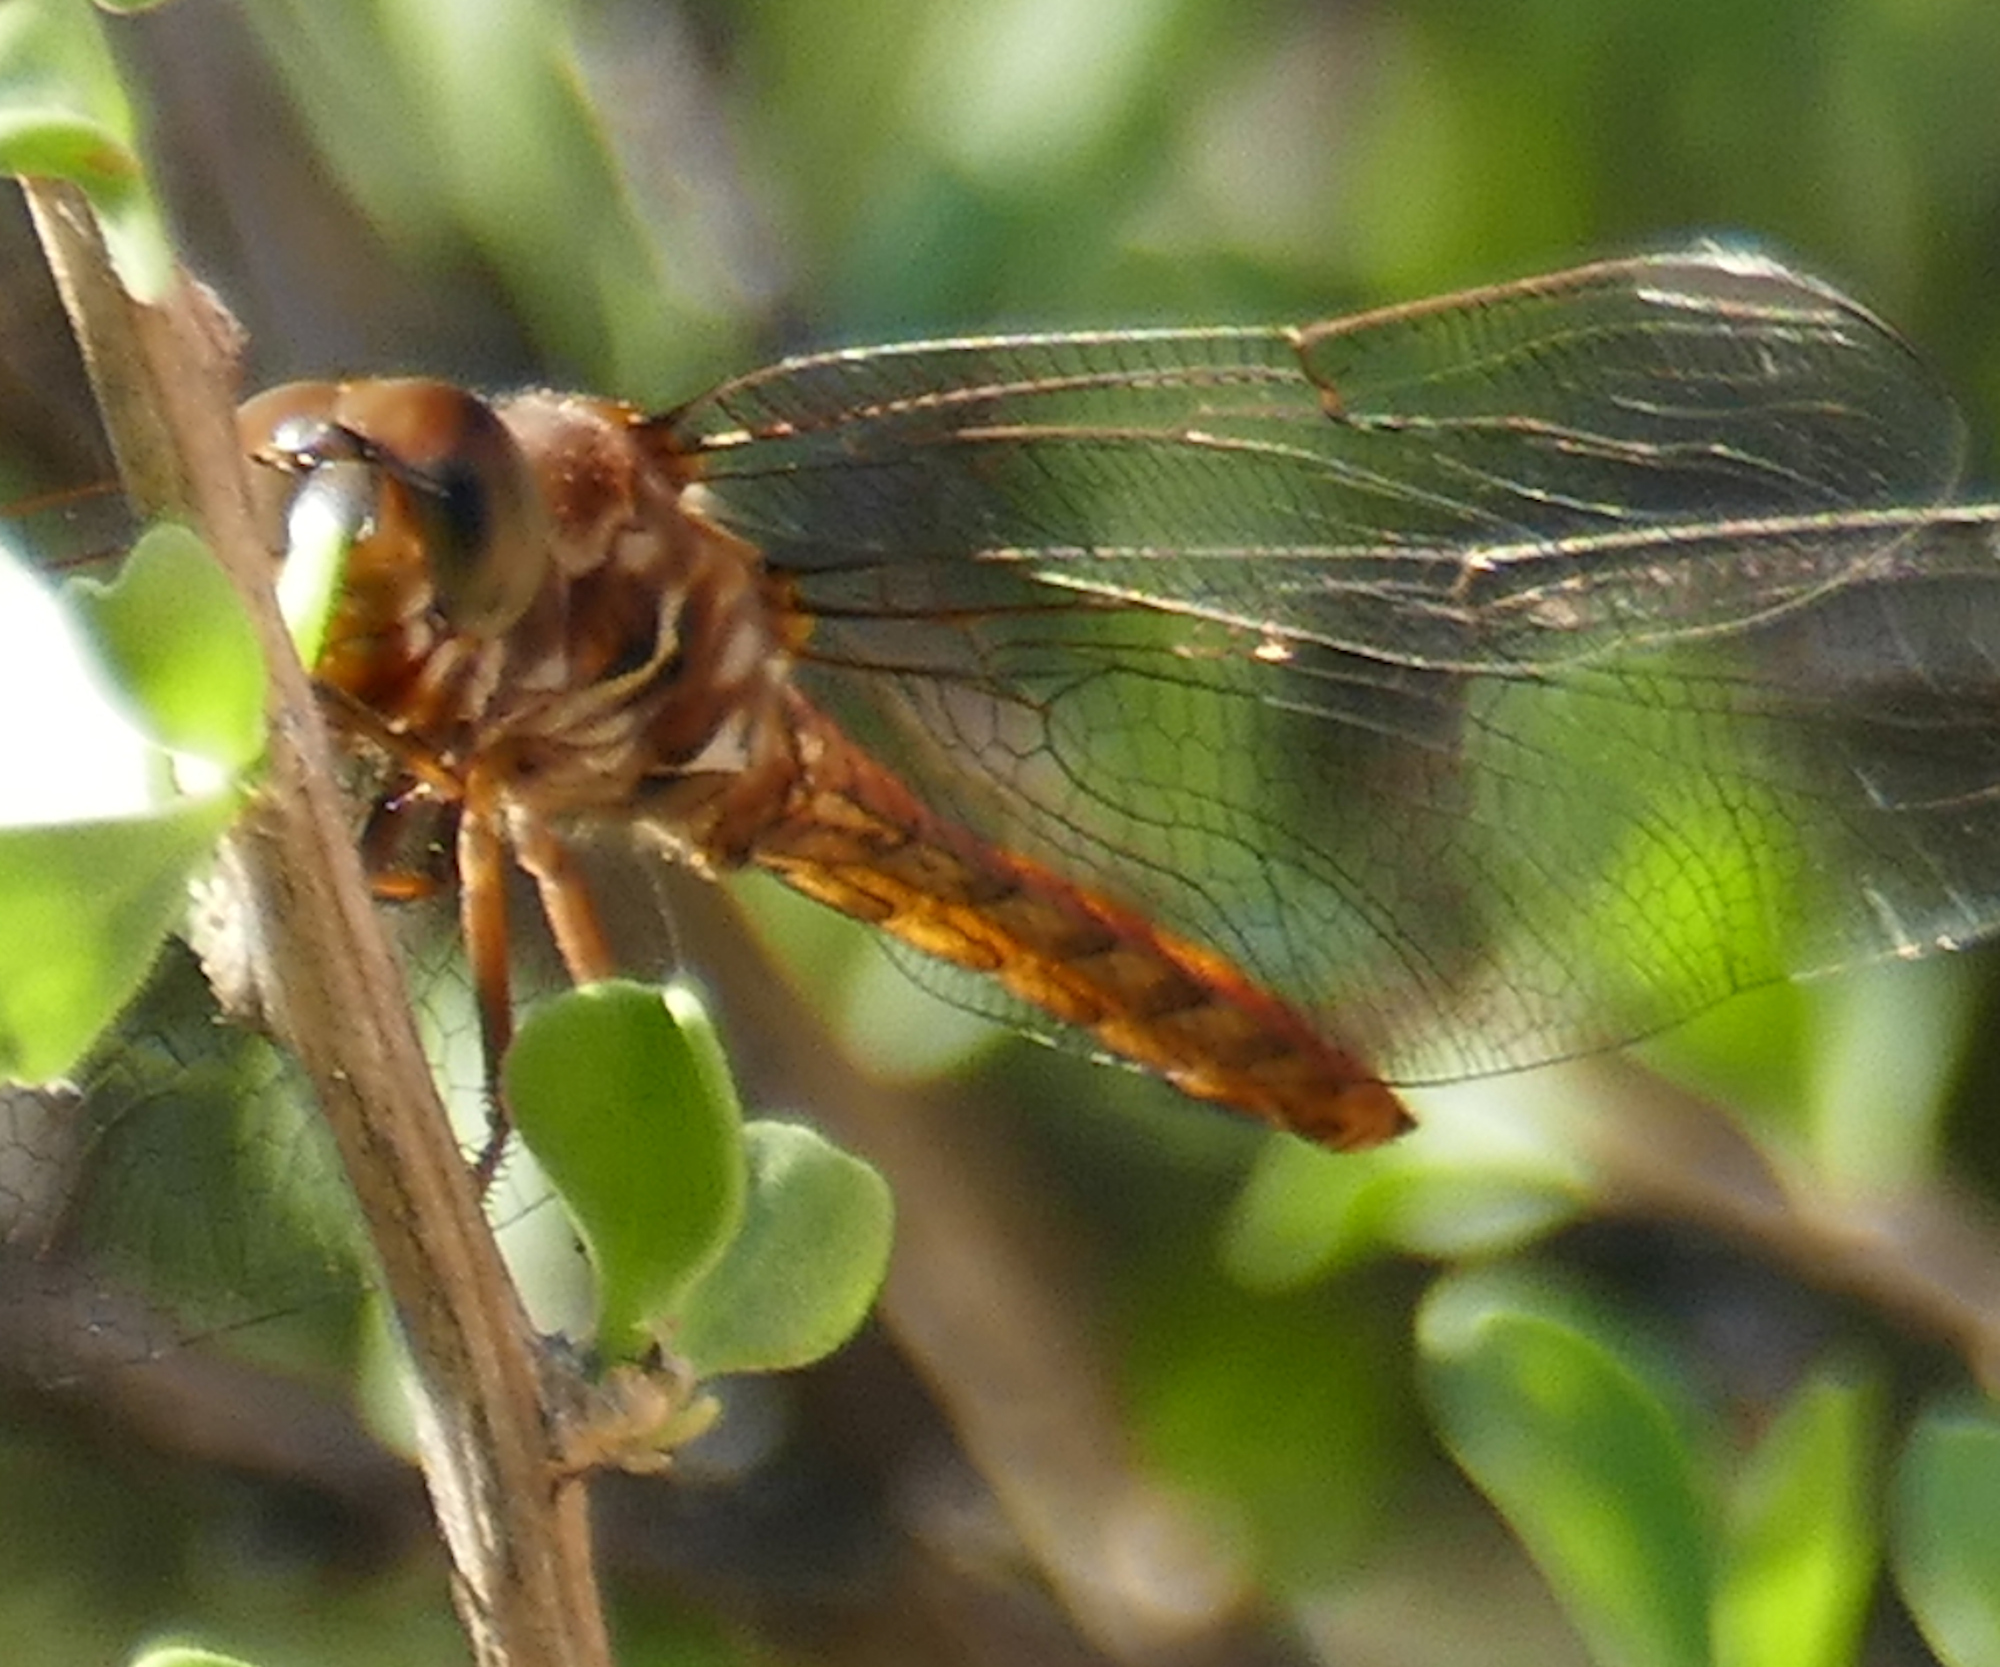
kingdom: Animalia
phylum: Arthropoda
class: Insecta
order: Odonata
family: Libellulidae
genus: Orthemis
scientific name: Orthemis ferruginea
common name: Roseate skimmer
